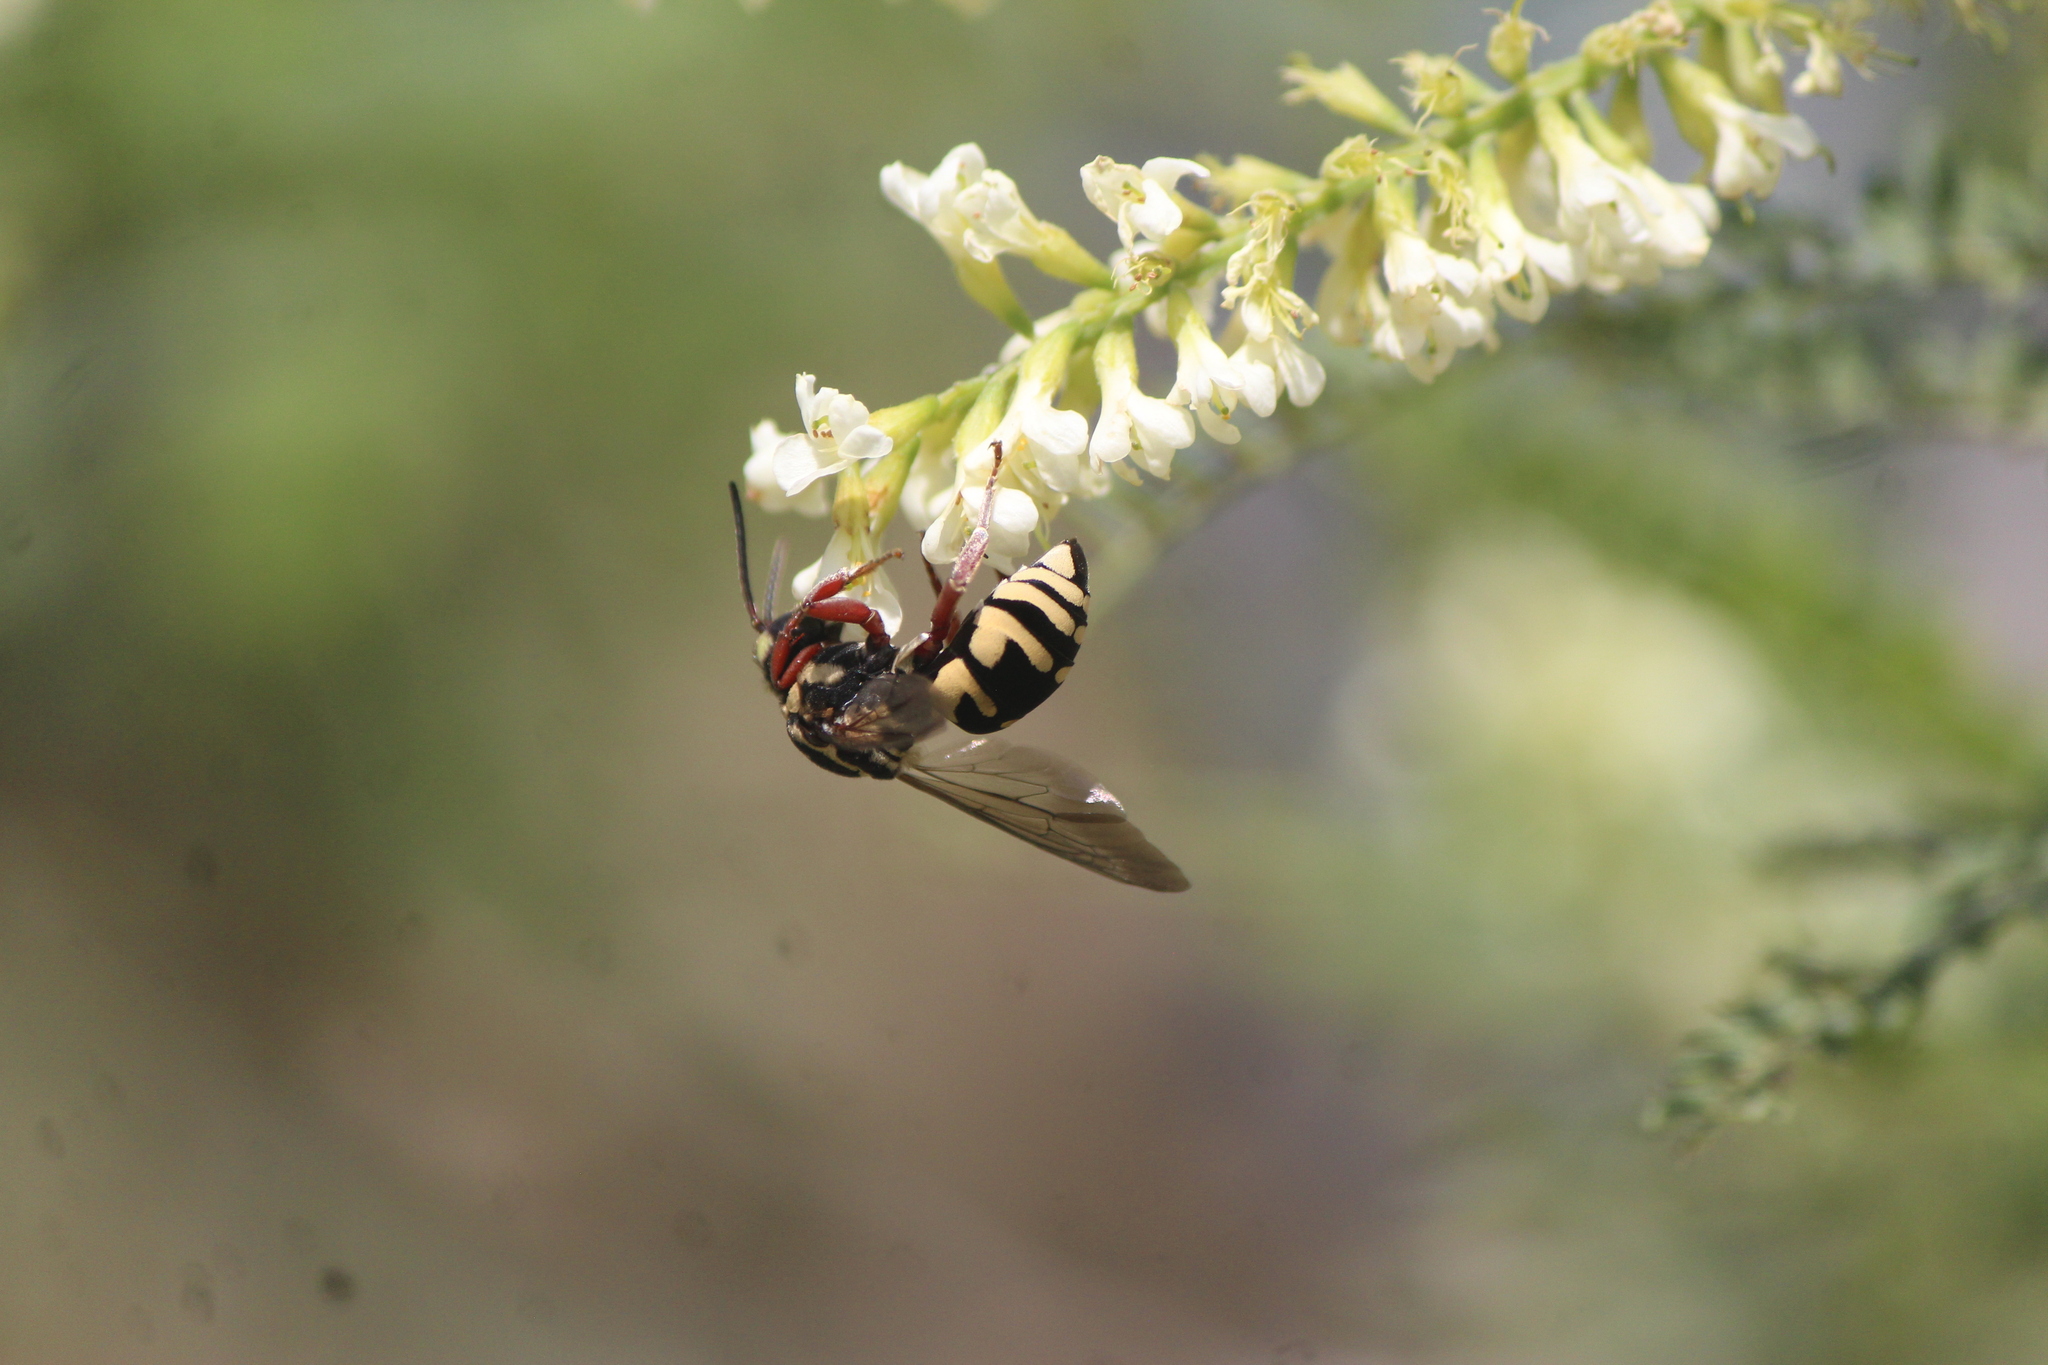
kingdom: Animalia
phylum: Arthropoda
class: Insecta
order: Hymenoptera
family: Apidae
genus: Triepeolus
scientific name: Triepeolus grandis
